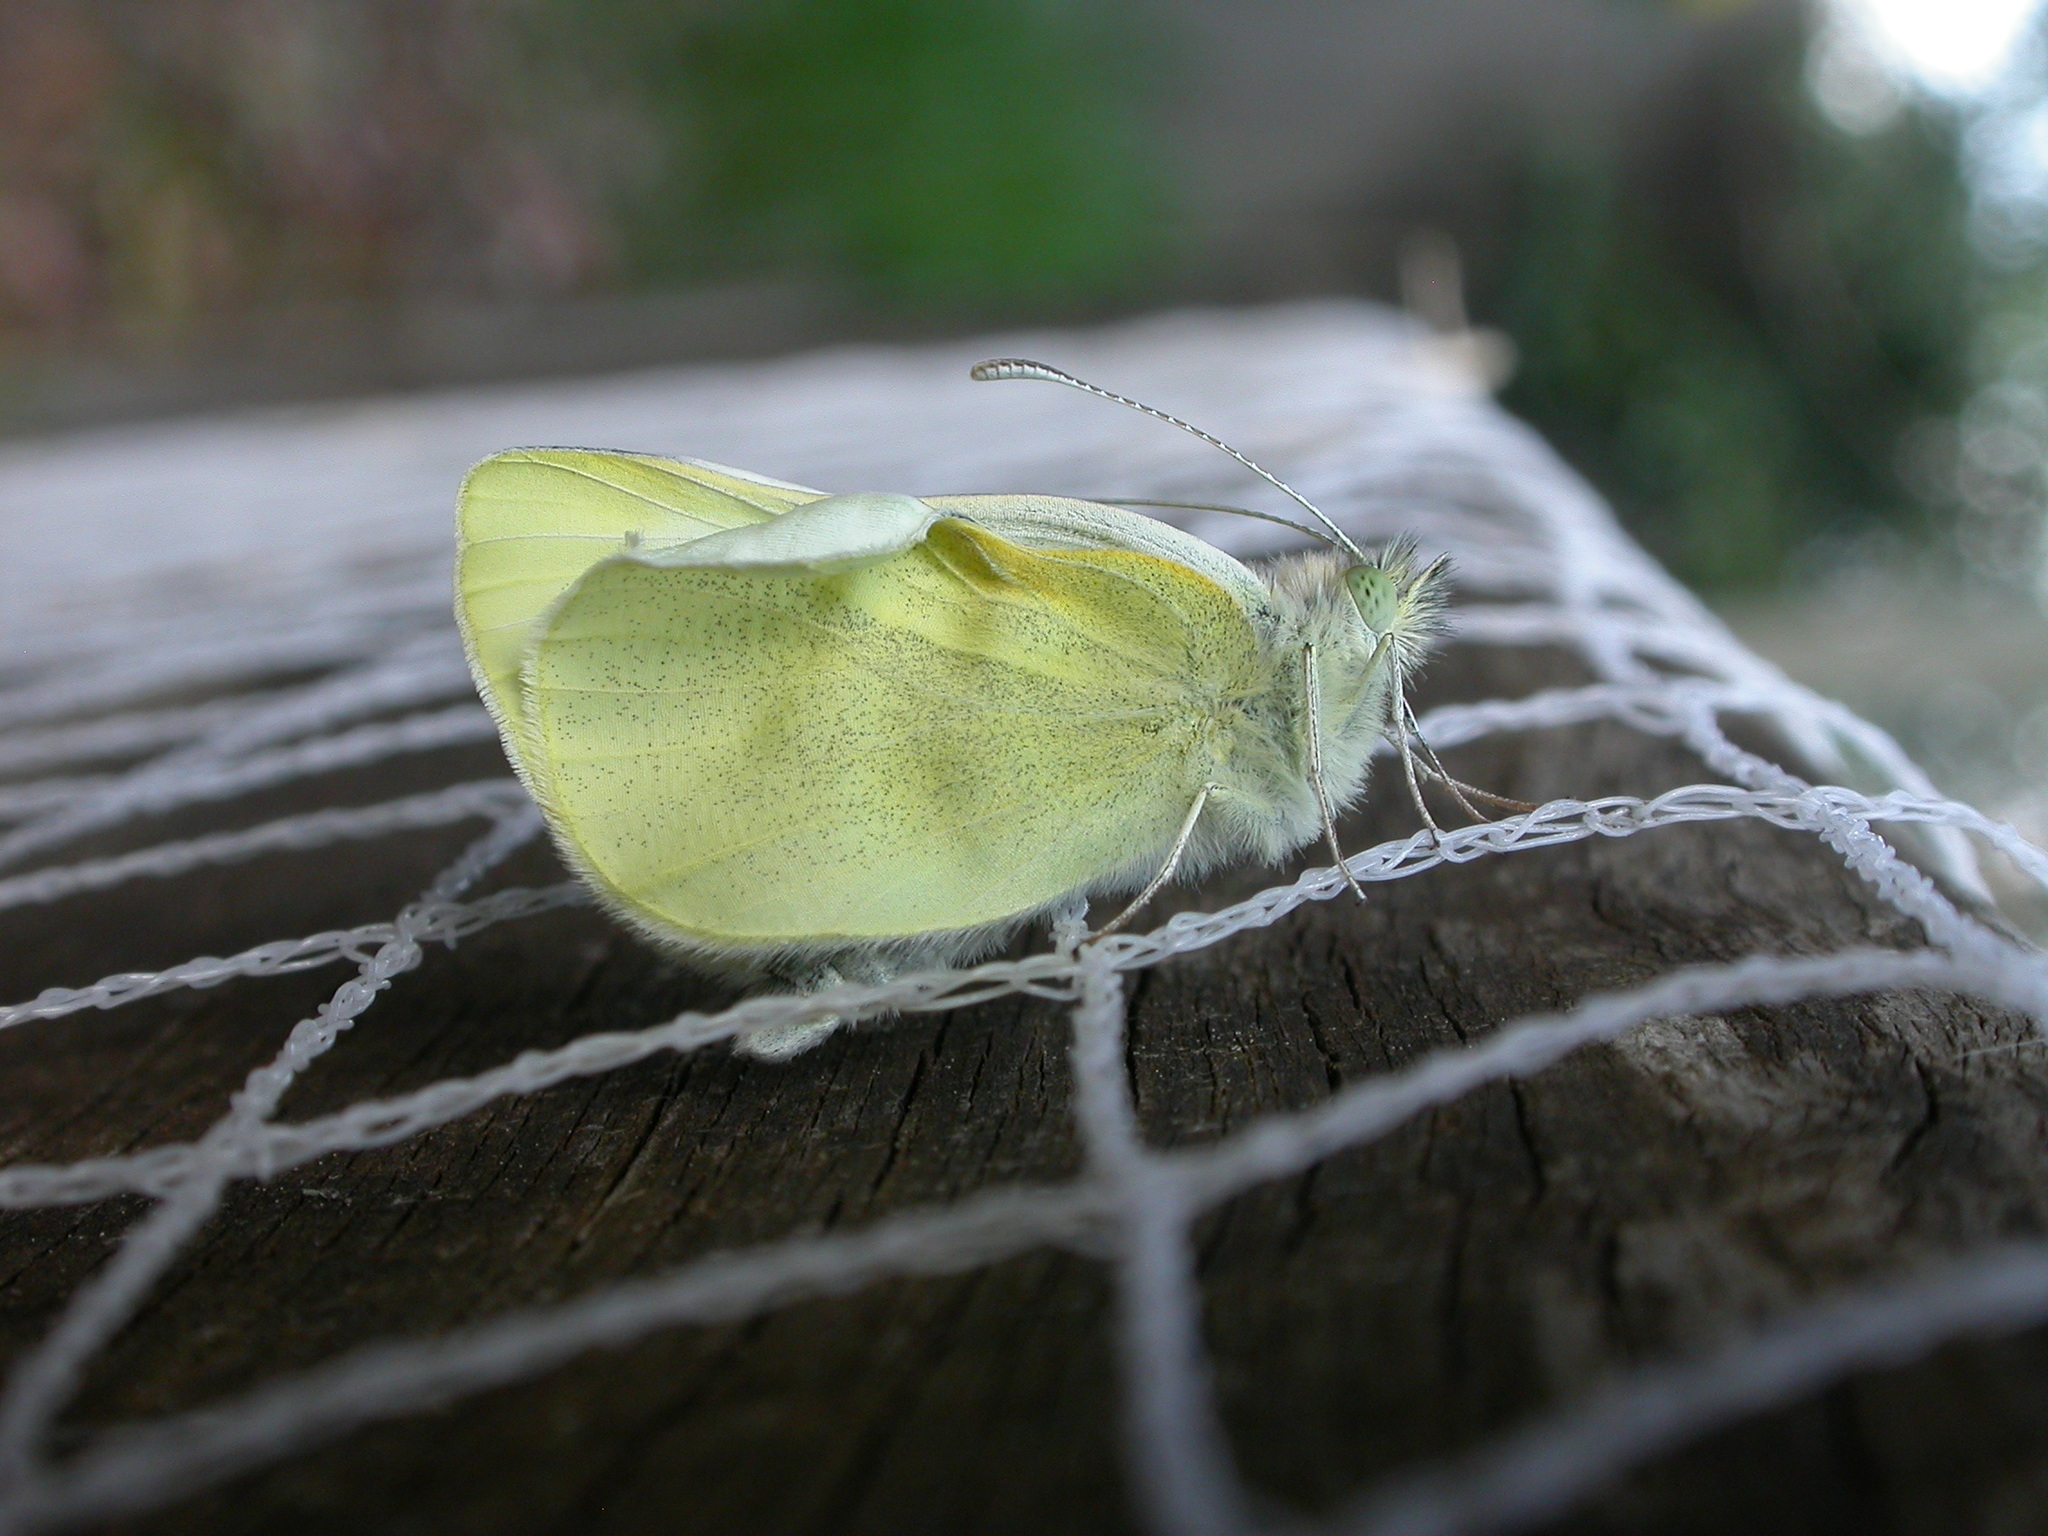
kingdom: Animalia
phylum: Arthropoda
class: Insecta
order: Lepidoptera
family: Pieridae
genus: Pieris
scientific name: Pieris rapae
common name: Small white
